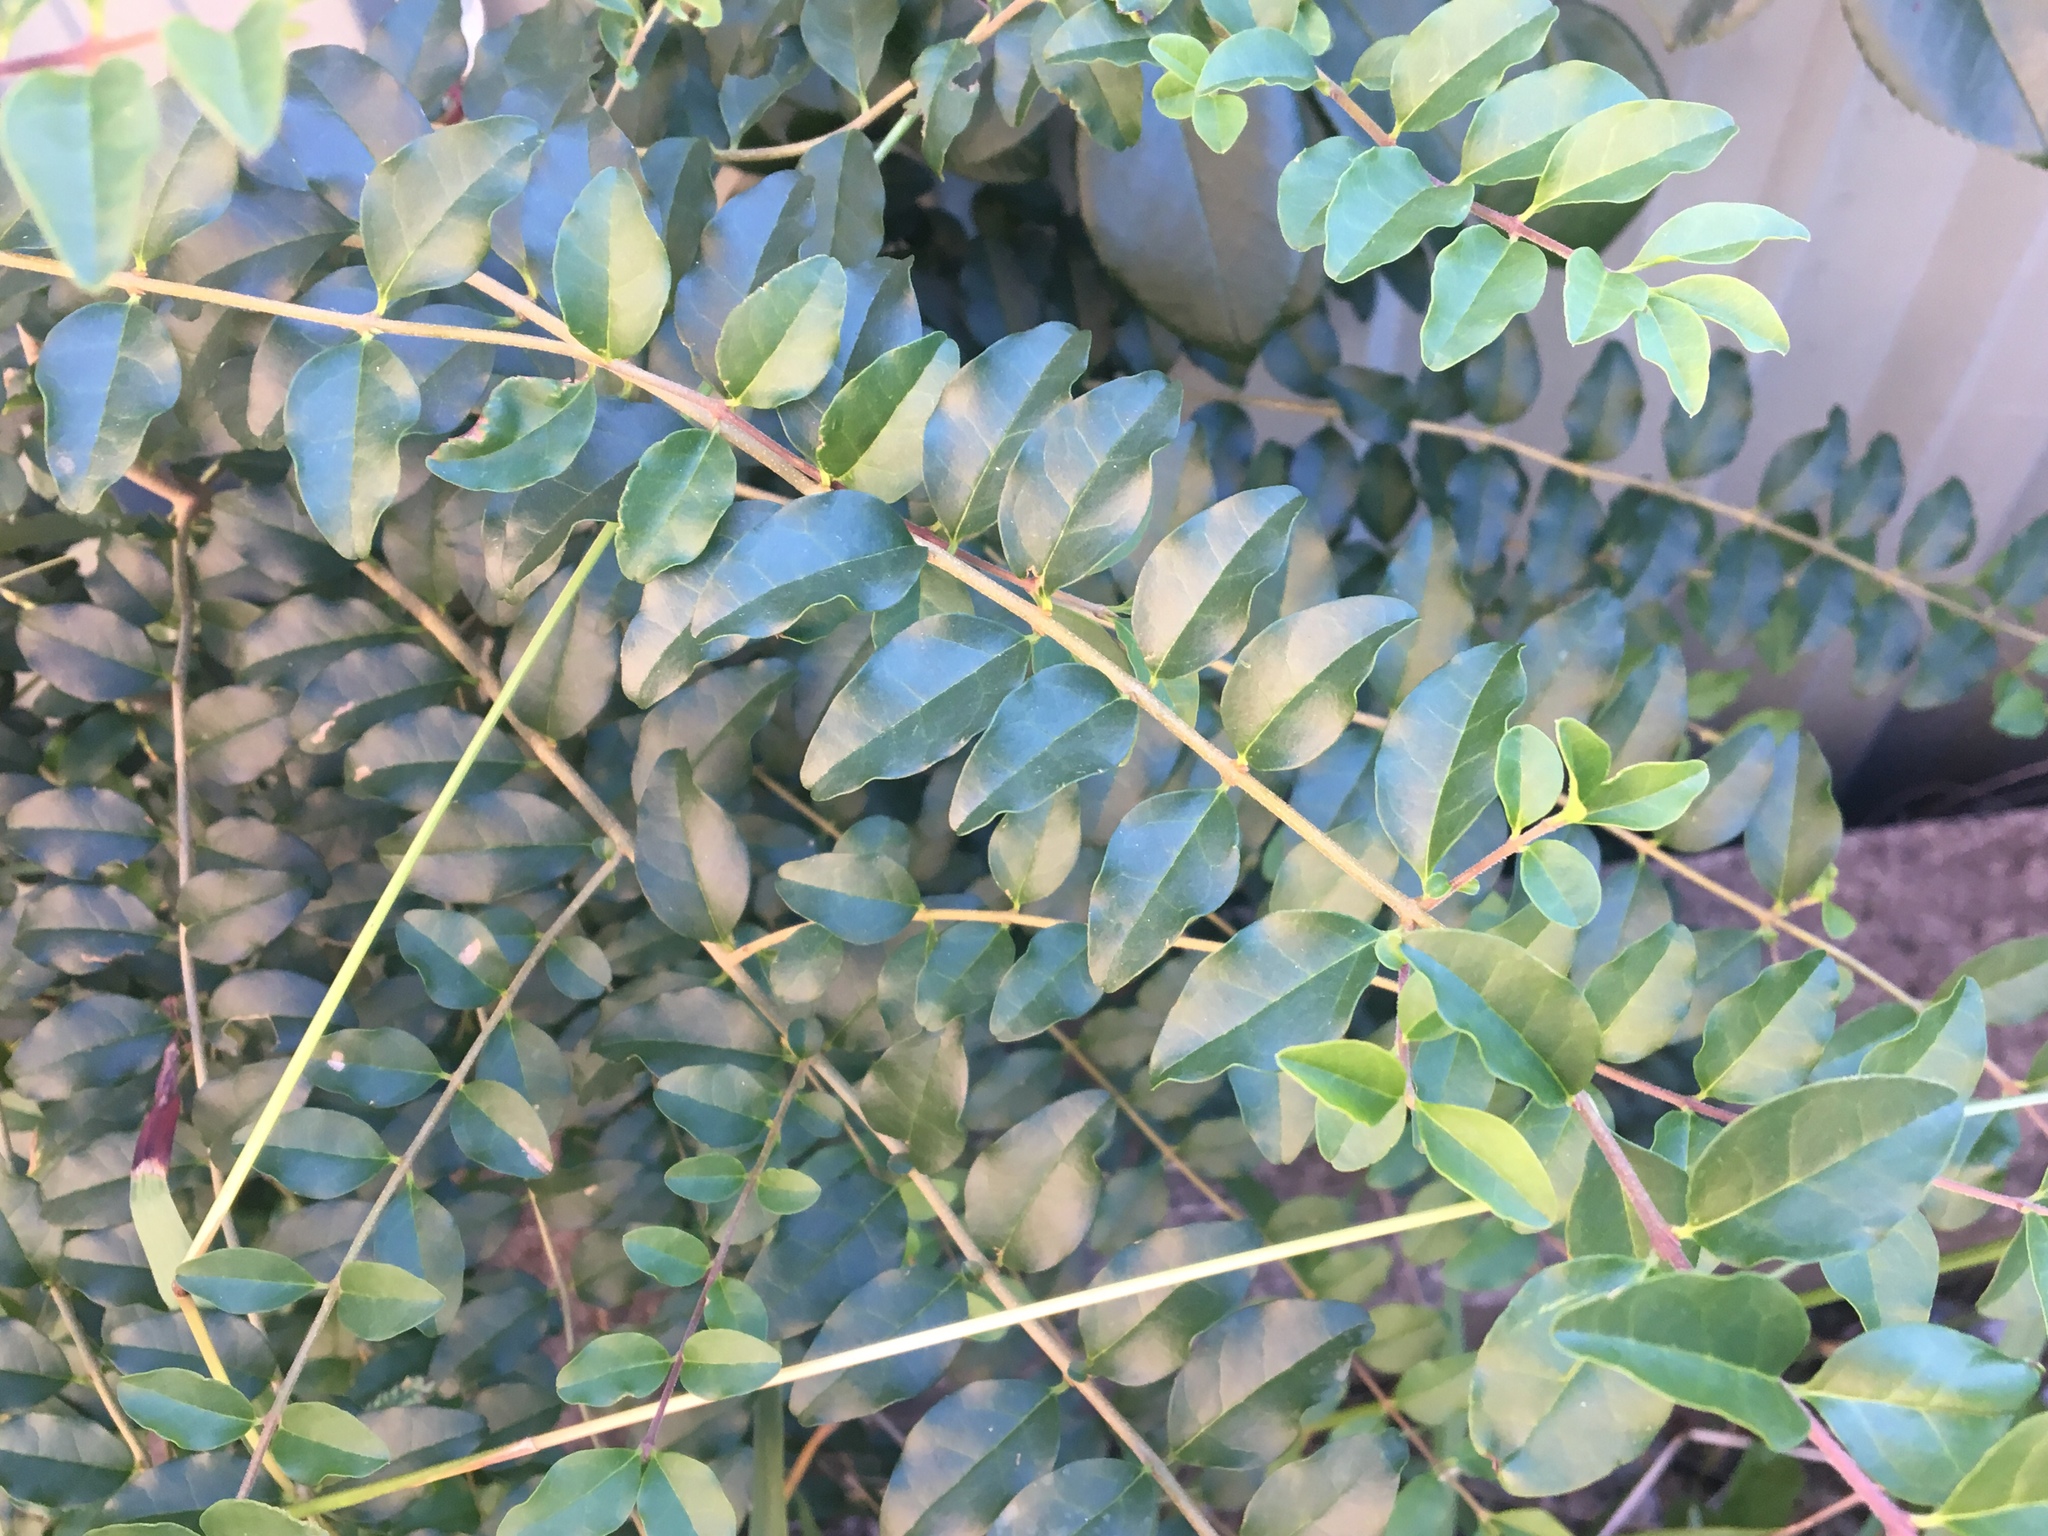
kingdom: Plantae
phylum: Tracheophyta
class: Magnoliopsida
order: Lamiales
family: Oleaceae
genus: Ligustrum
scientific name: Ligustrum sinense
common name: Chinese privet
